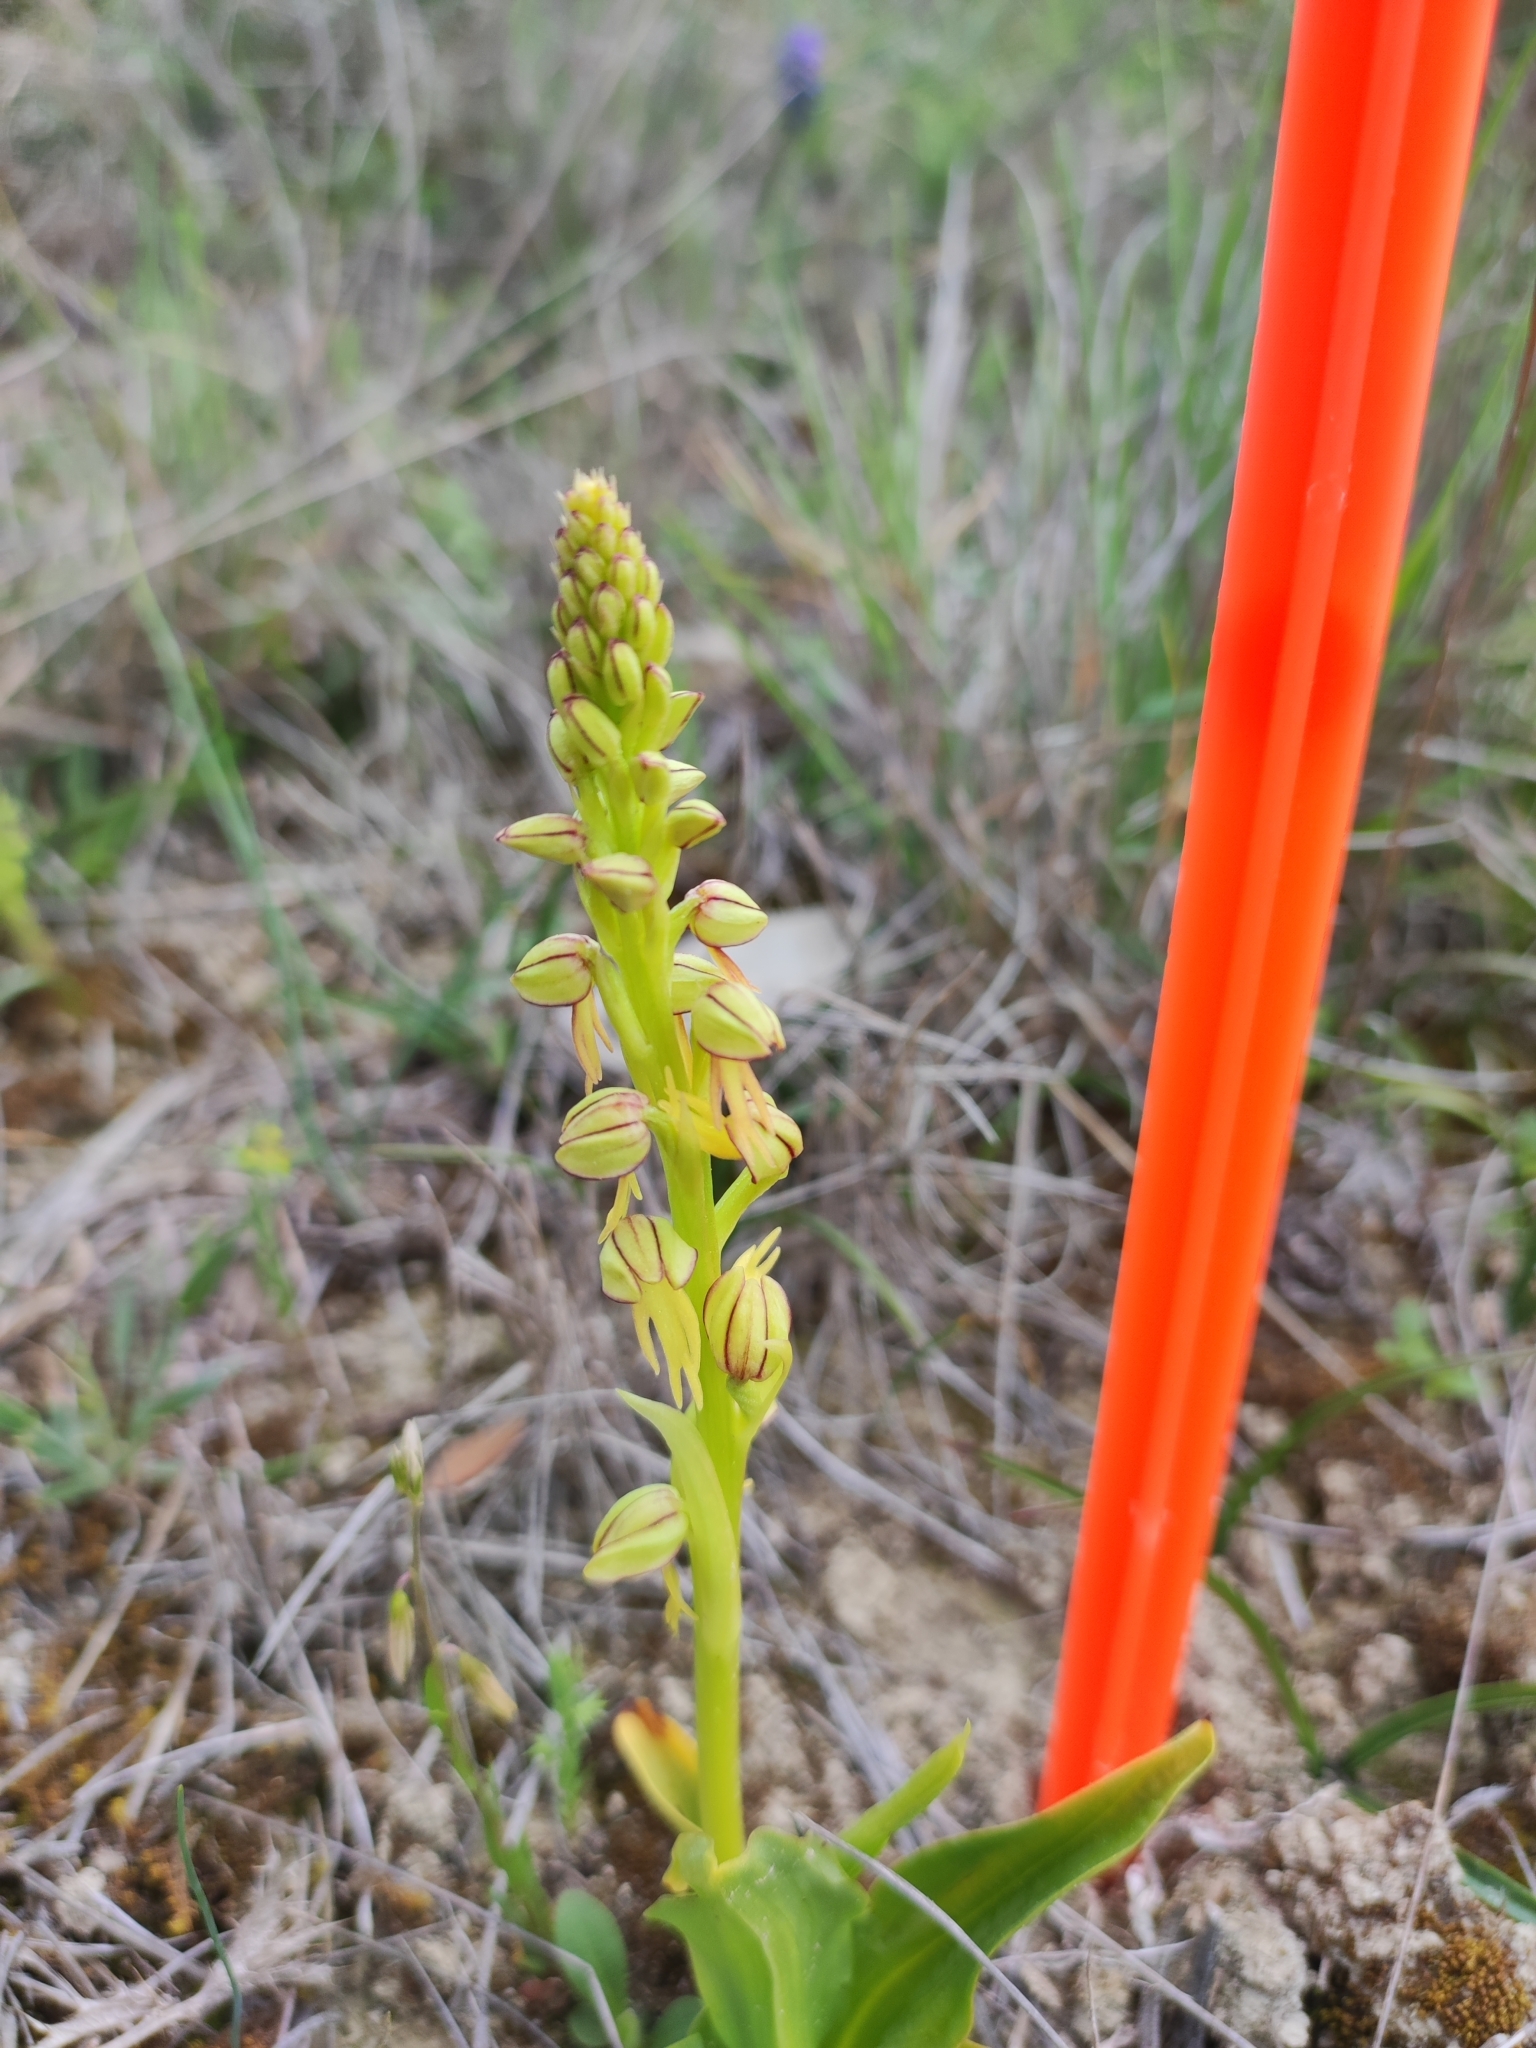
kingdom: Plantae
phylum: Tracheophyta
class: Liliopsida
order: Asparagales
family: Orchidaceae
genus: Orchis
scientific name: Orchis anthropophora
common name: Man orchid
